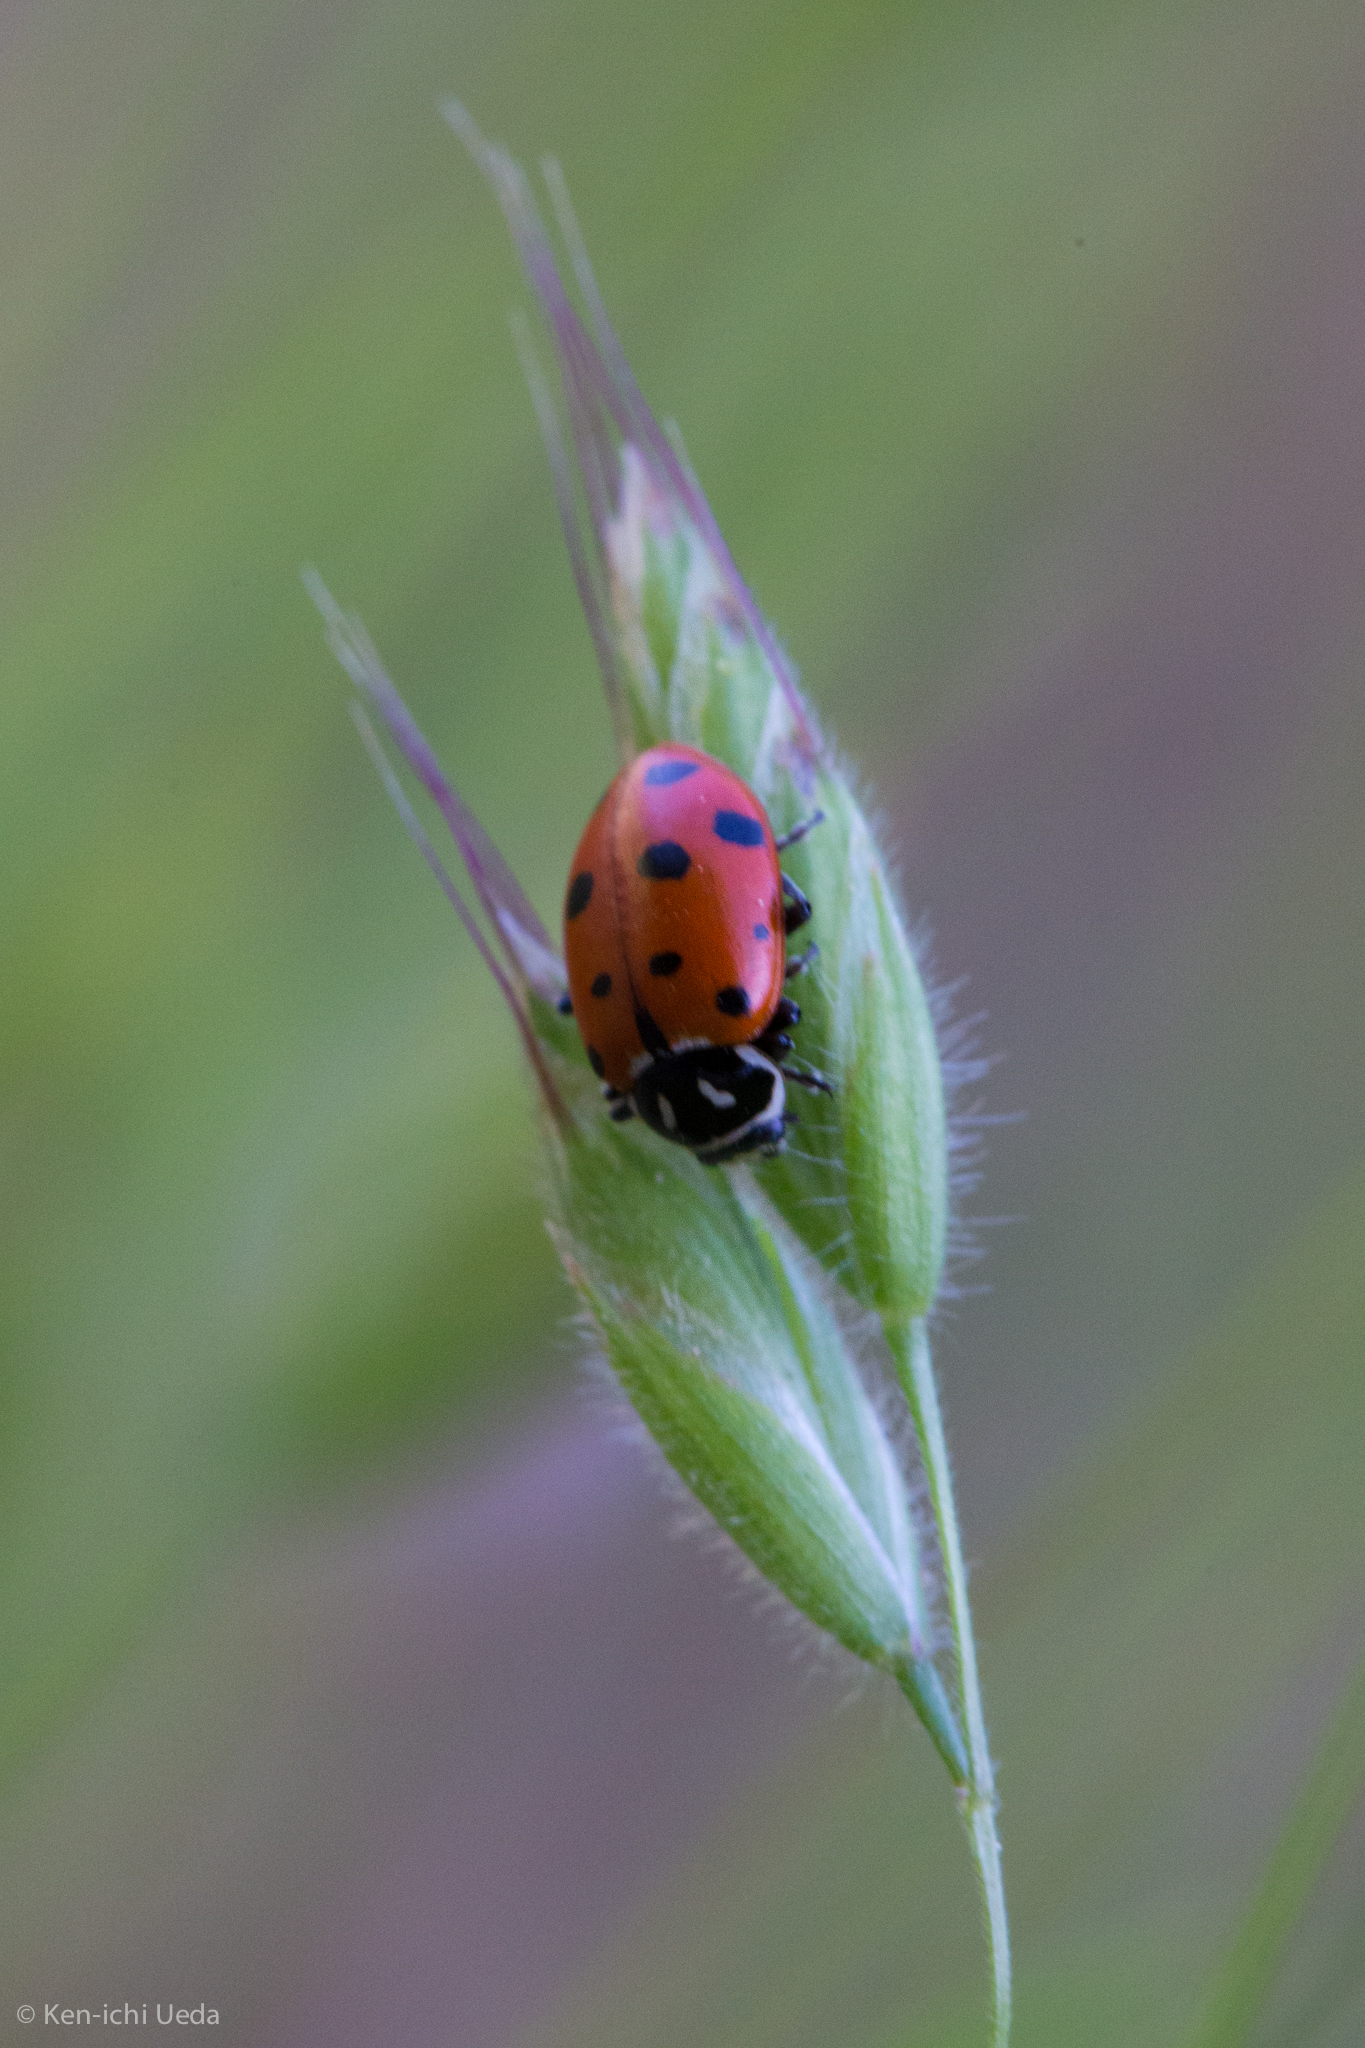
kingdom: Animalia
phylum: Arthropoda
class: Insecta
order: Coleoptera
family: Coccinellidae
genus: Hippodamia
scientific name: Hippodamia convergens
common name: Convergent lady beetle
